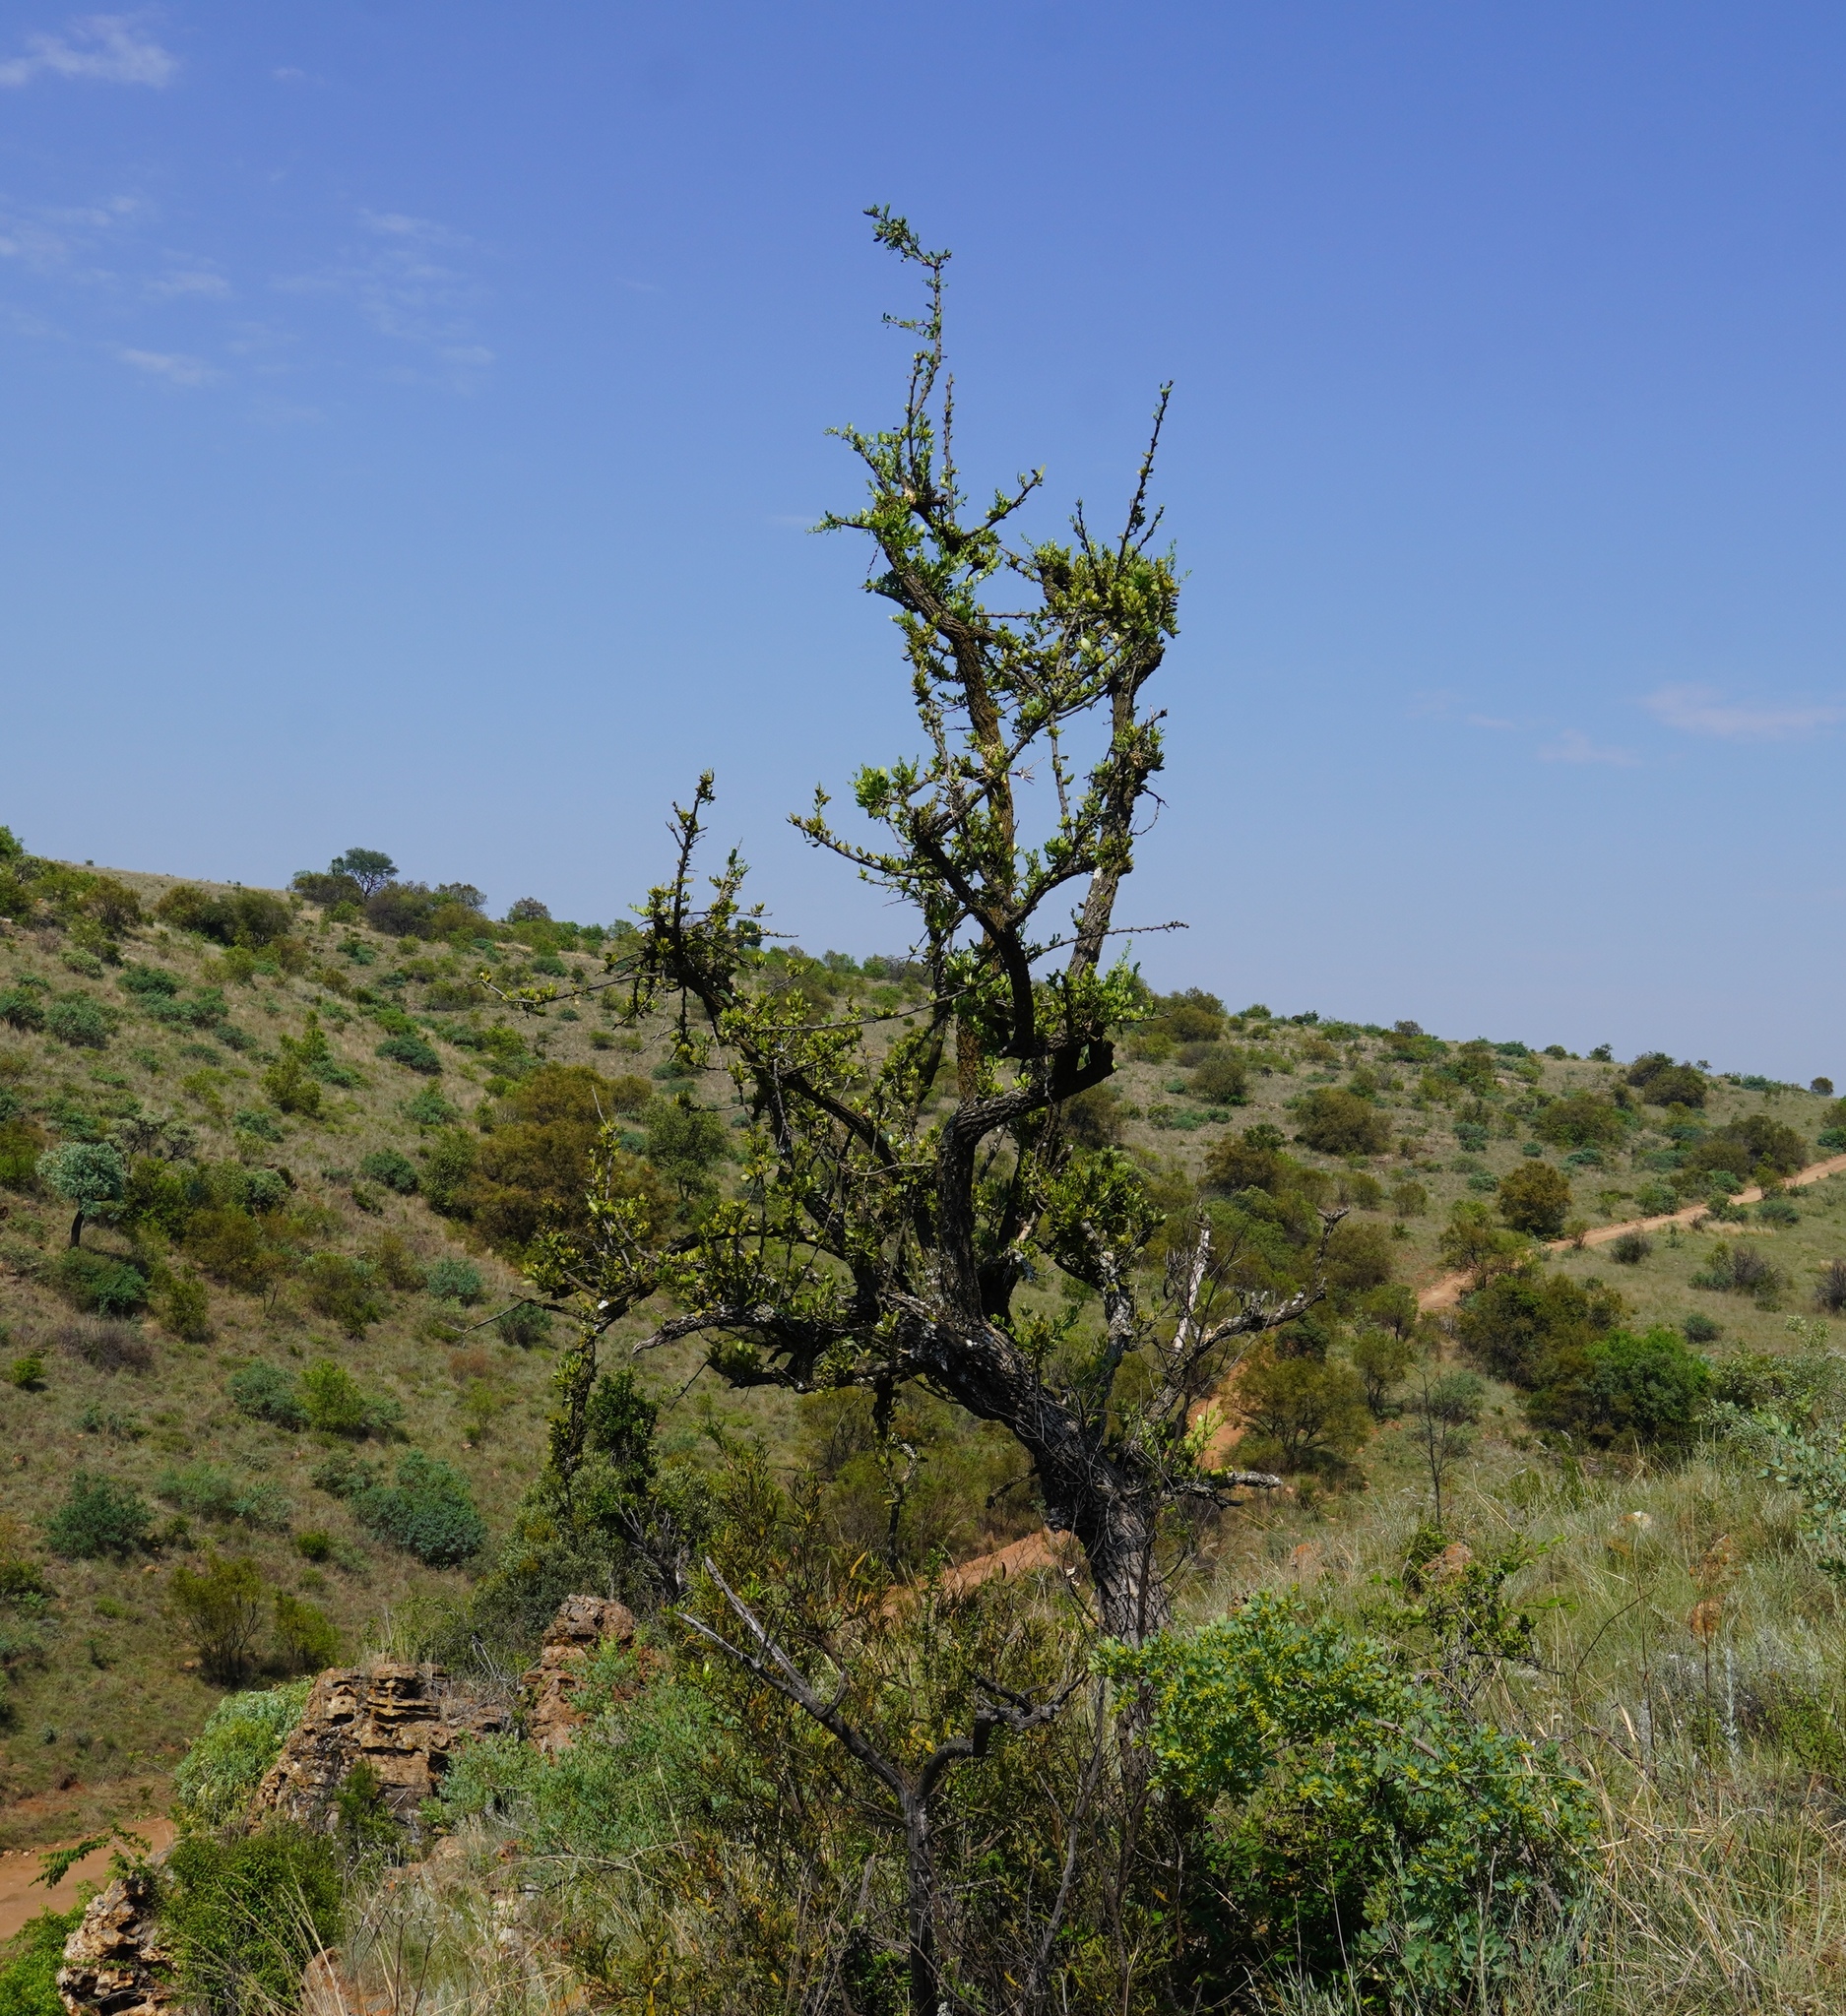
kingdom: Plantae
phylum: Tracheophyta
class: Magnoliopsida
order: Celastrales
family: Celastraceae
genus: Gymnosporia
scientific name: Gymnosporia buxifolia
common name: Common spike-thorn
